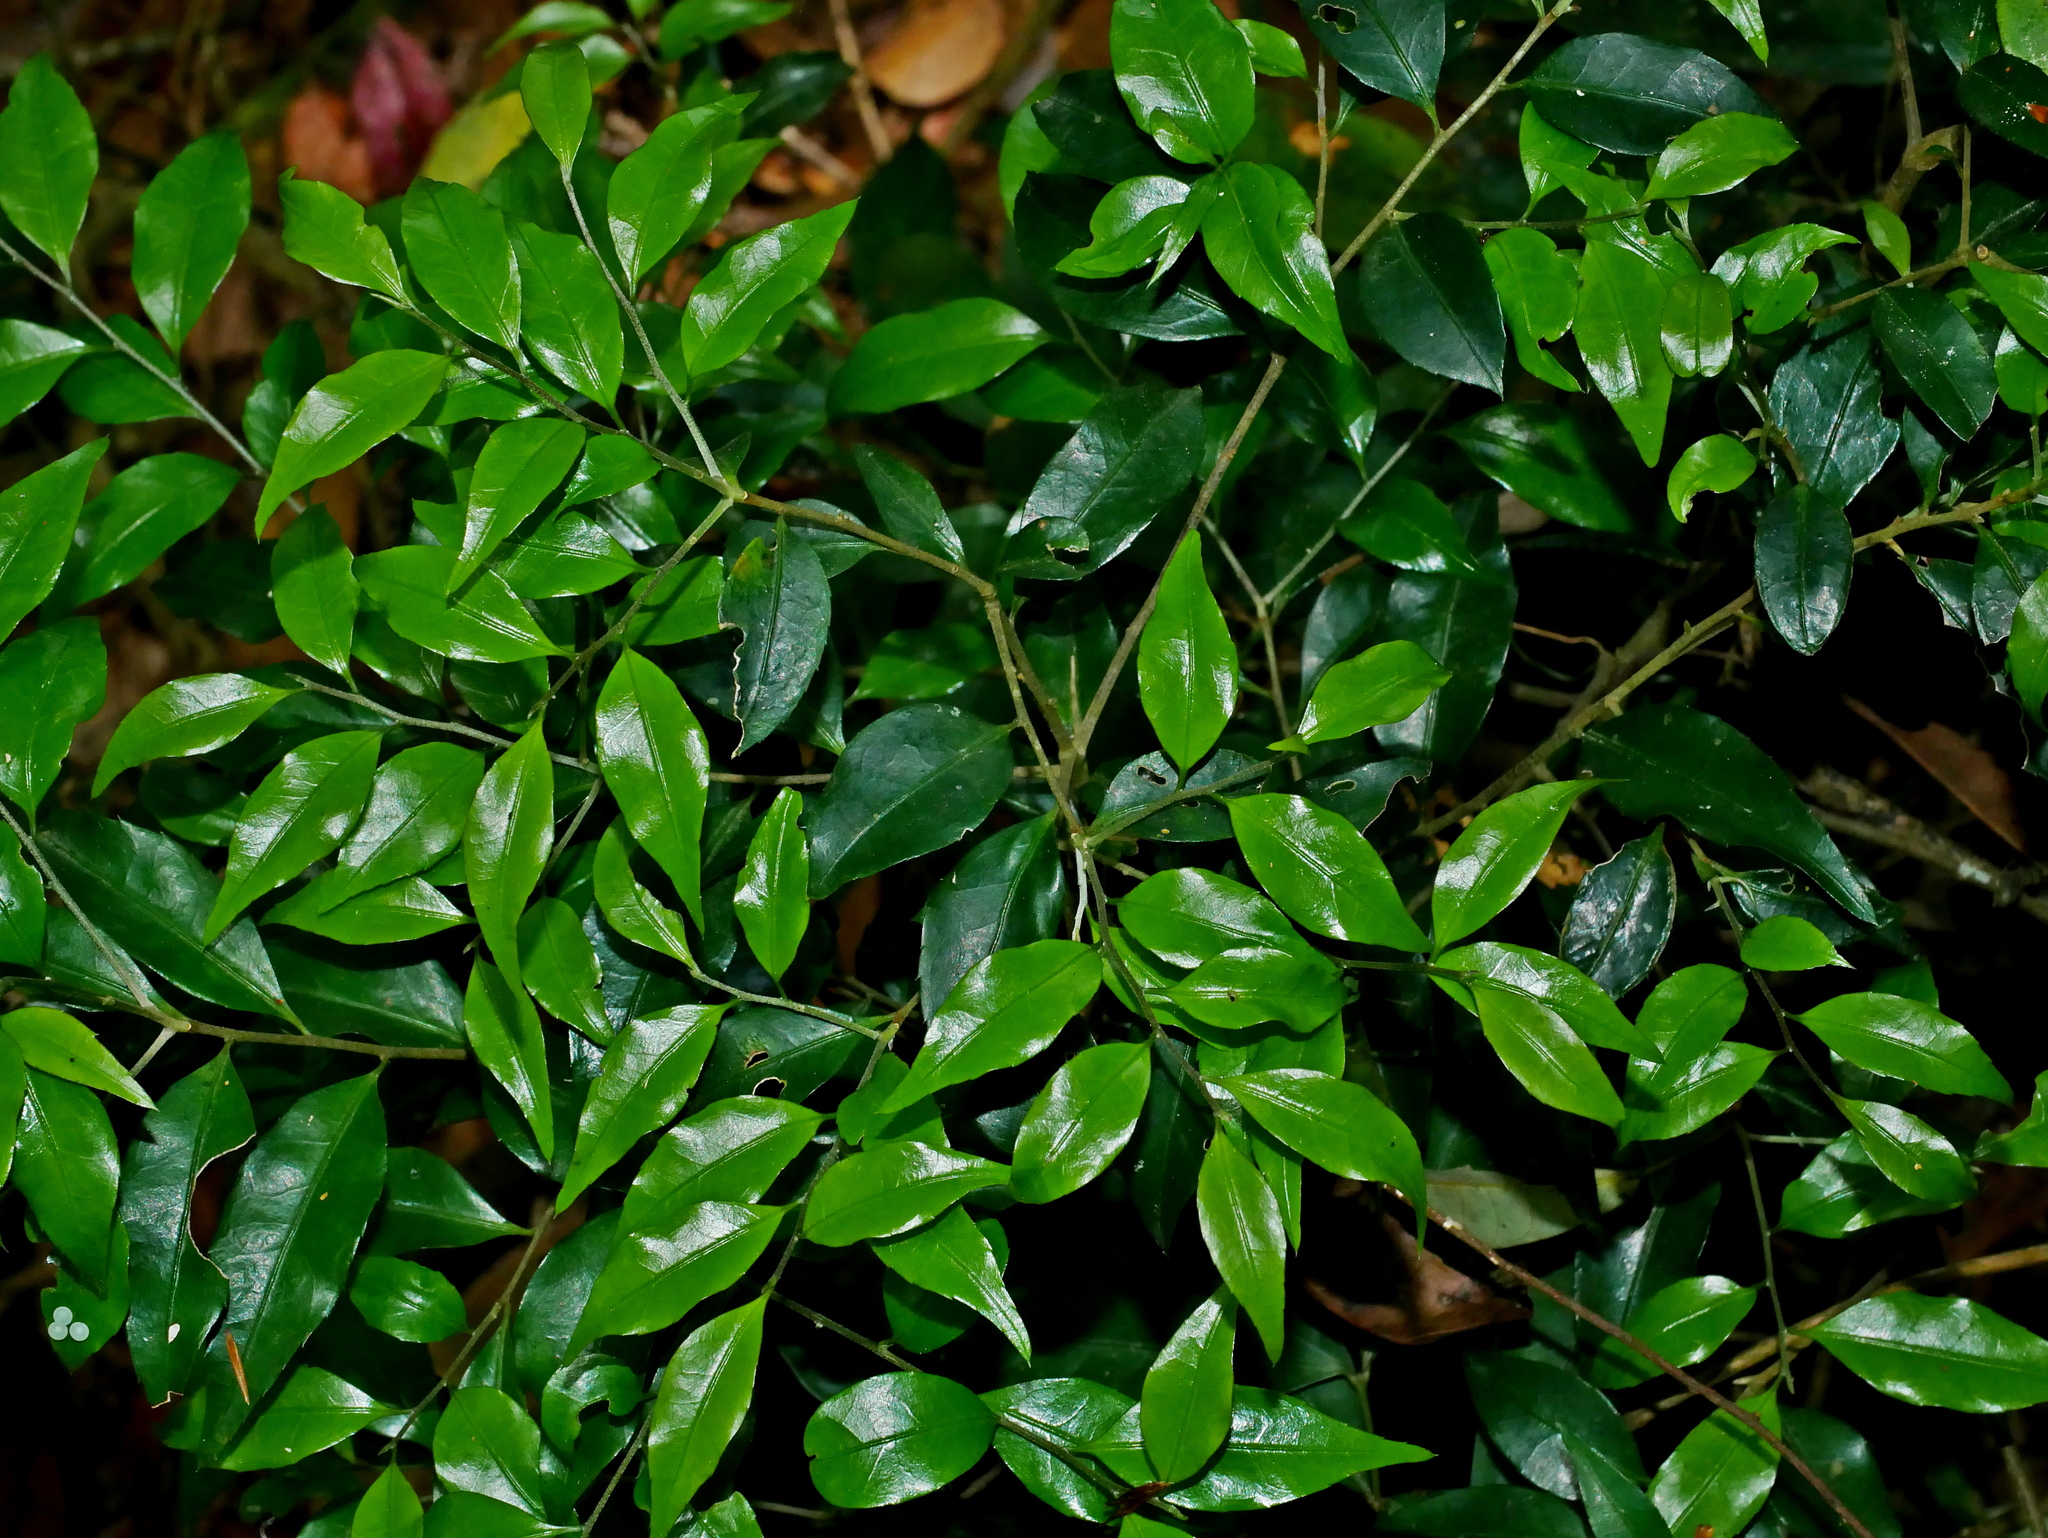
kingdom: Plantae
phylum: Tracheophyta
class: Magnoliopsida
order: Ericales
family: Symplocaceae
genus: Symplocos
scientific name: Symplocos anomala
